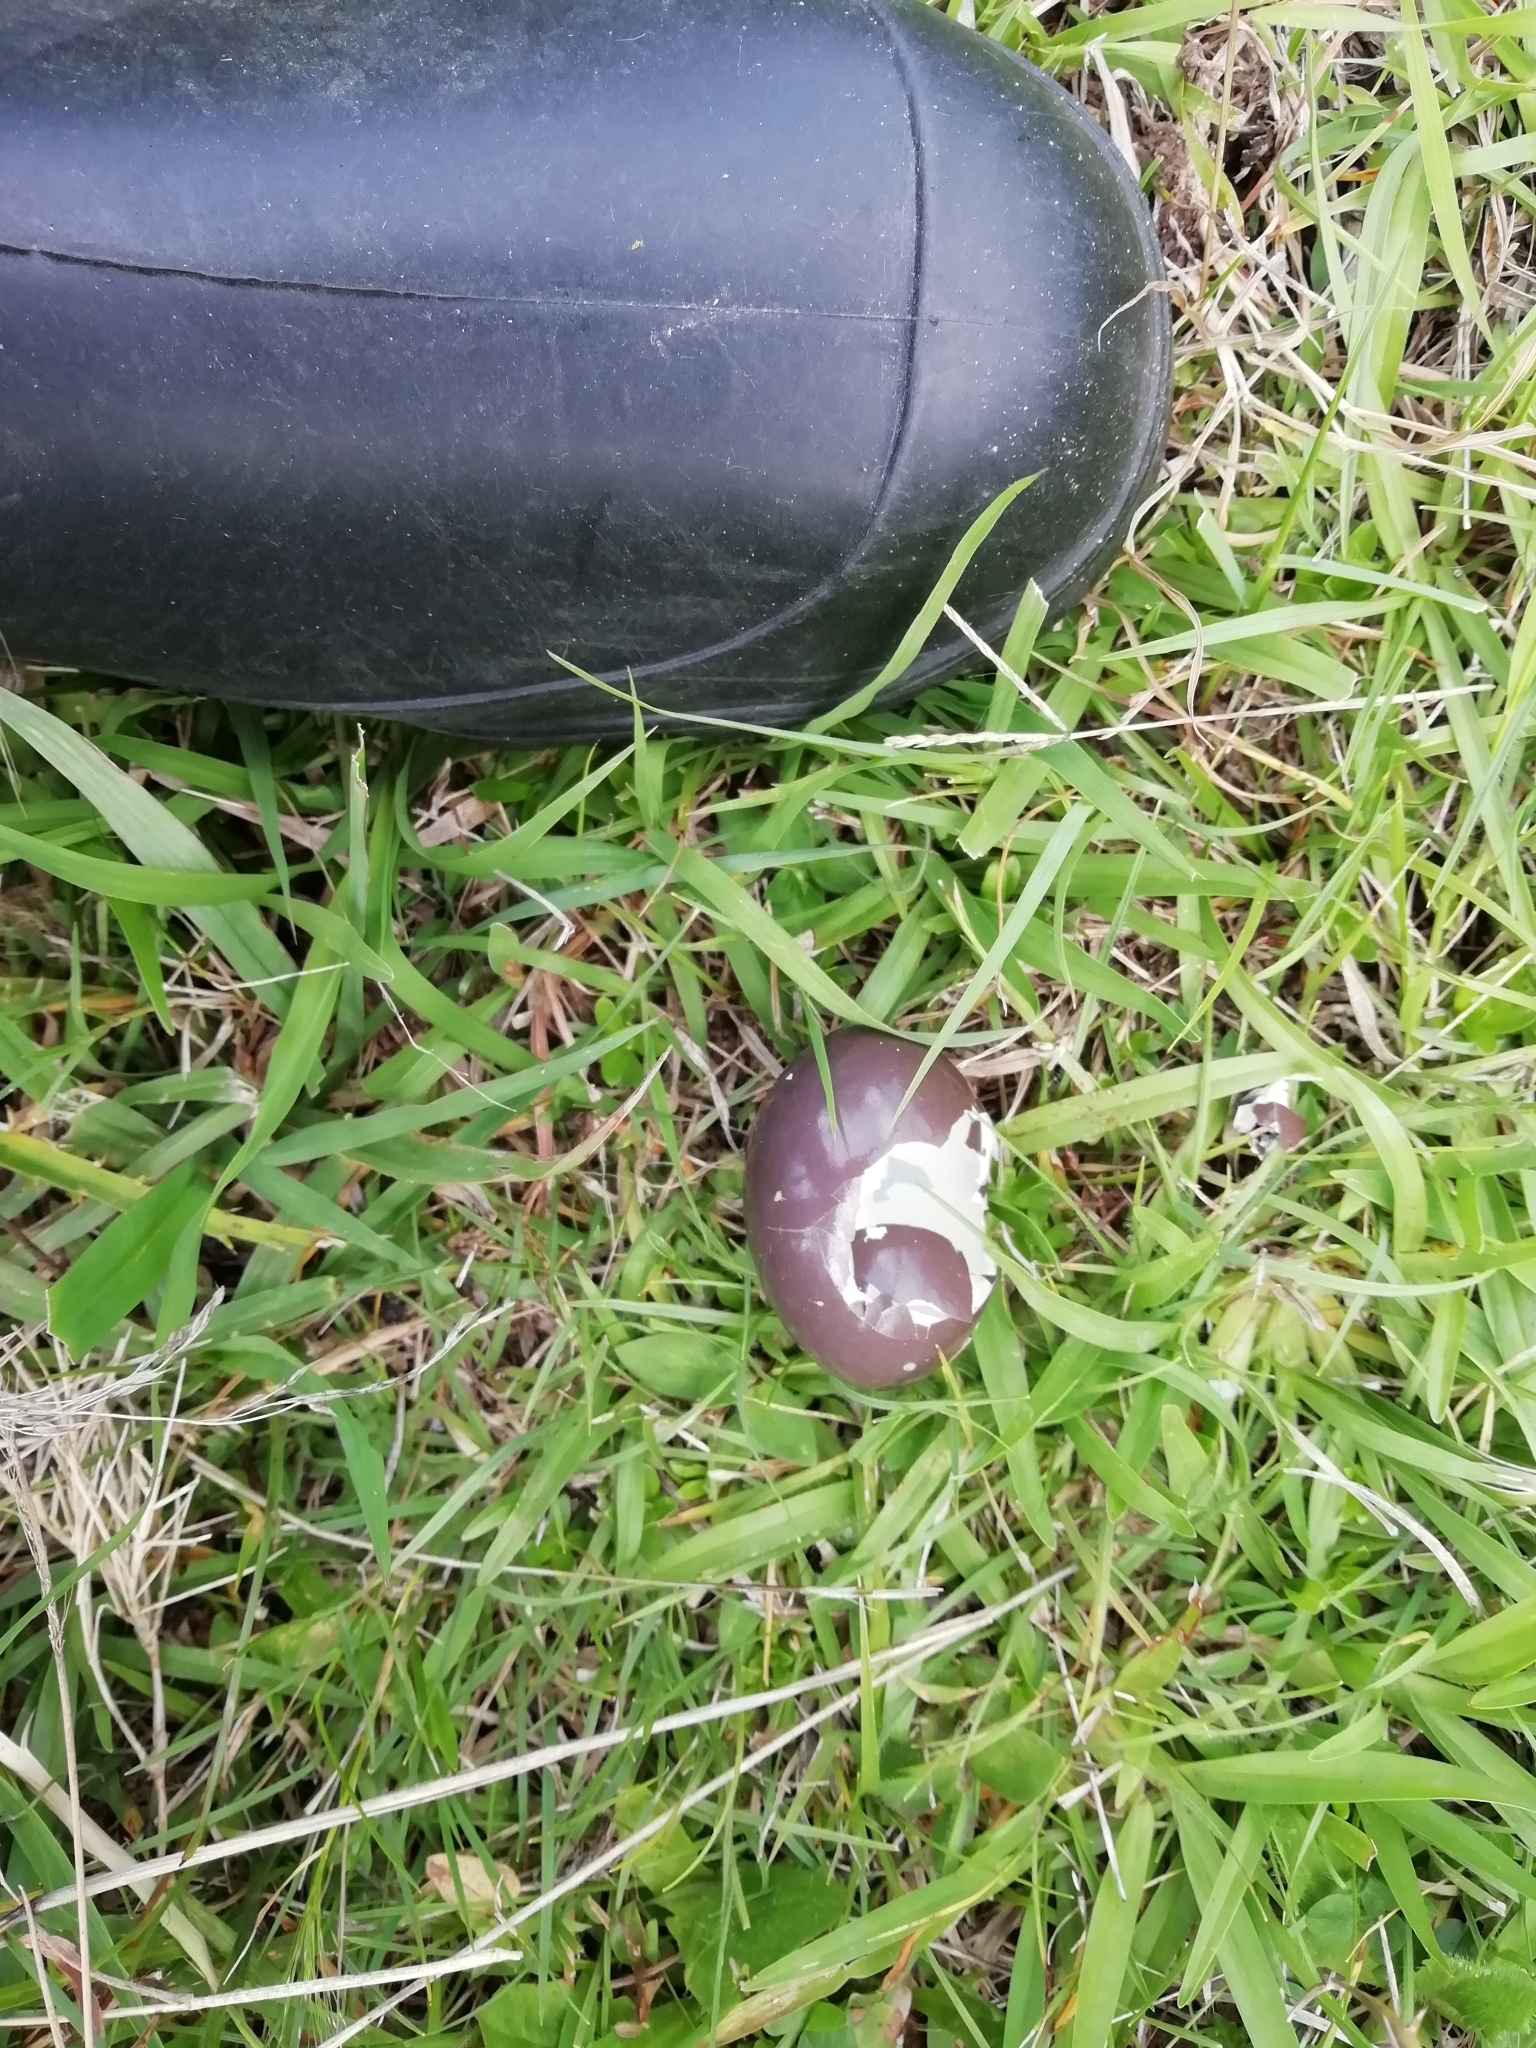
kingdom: Animalia
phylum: Chordata
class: Aves
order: Tinamiformes
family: Tinamidae
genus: Nothura
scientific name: Nothura maculosa
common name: Spotted nothura
